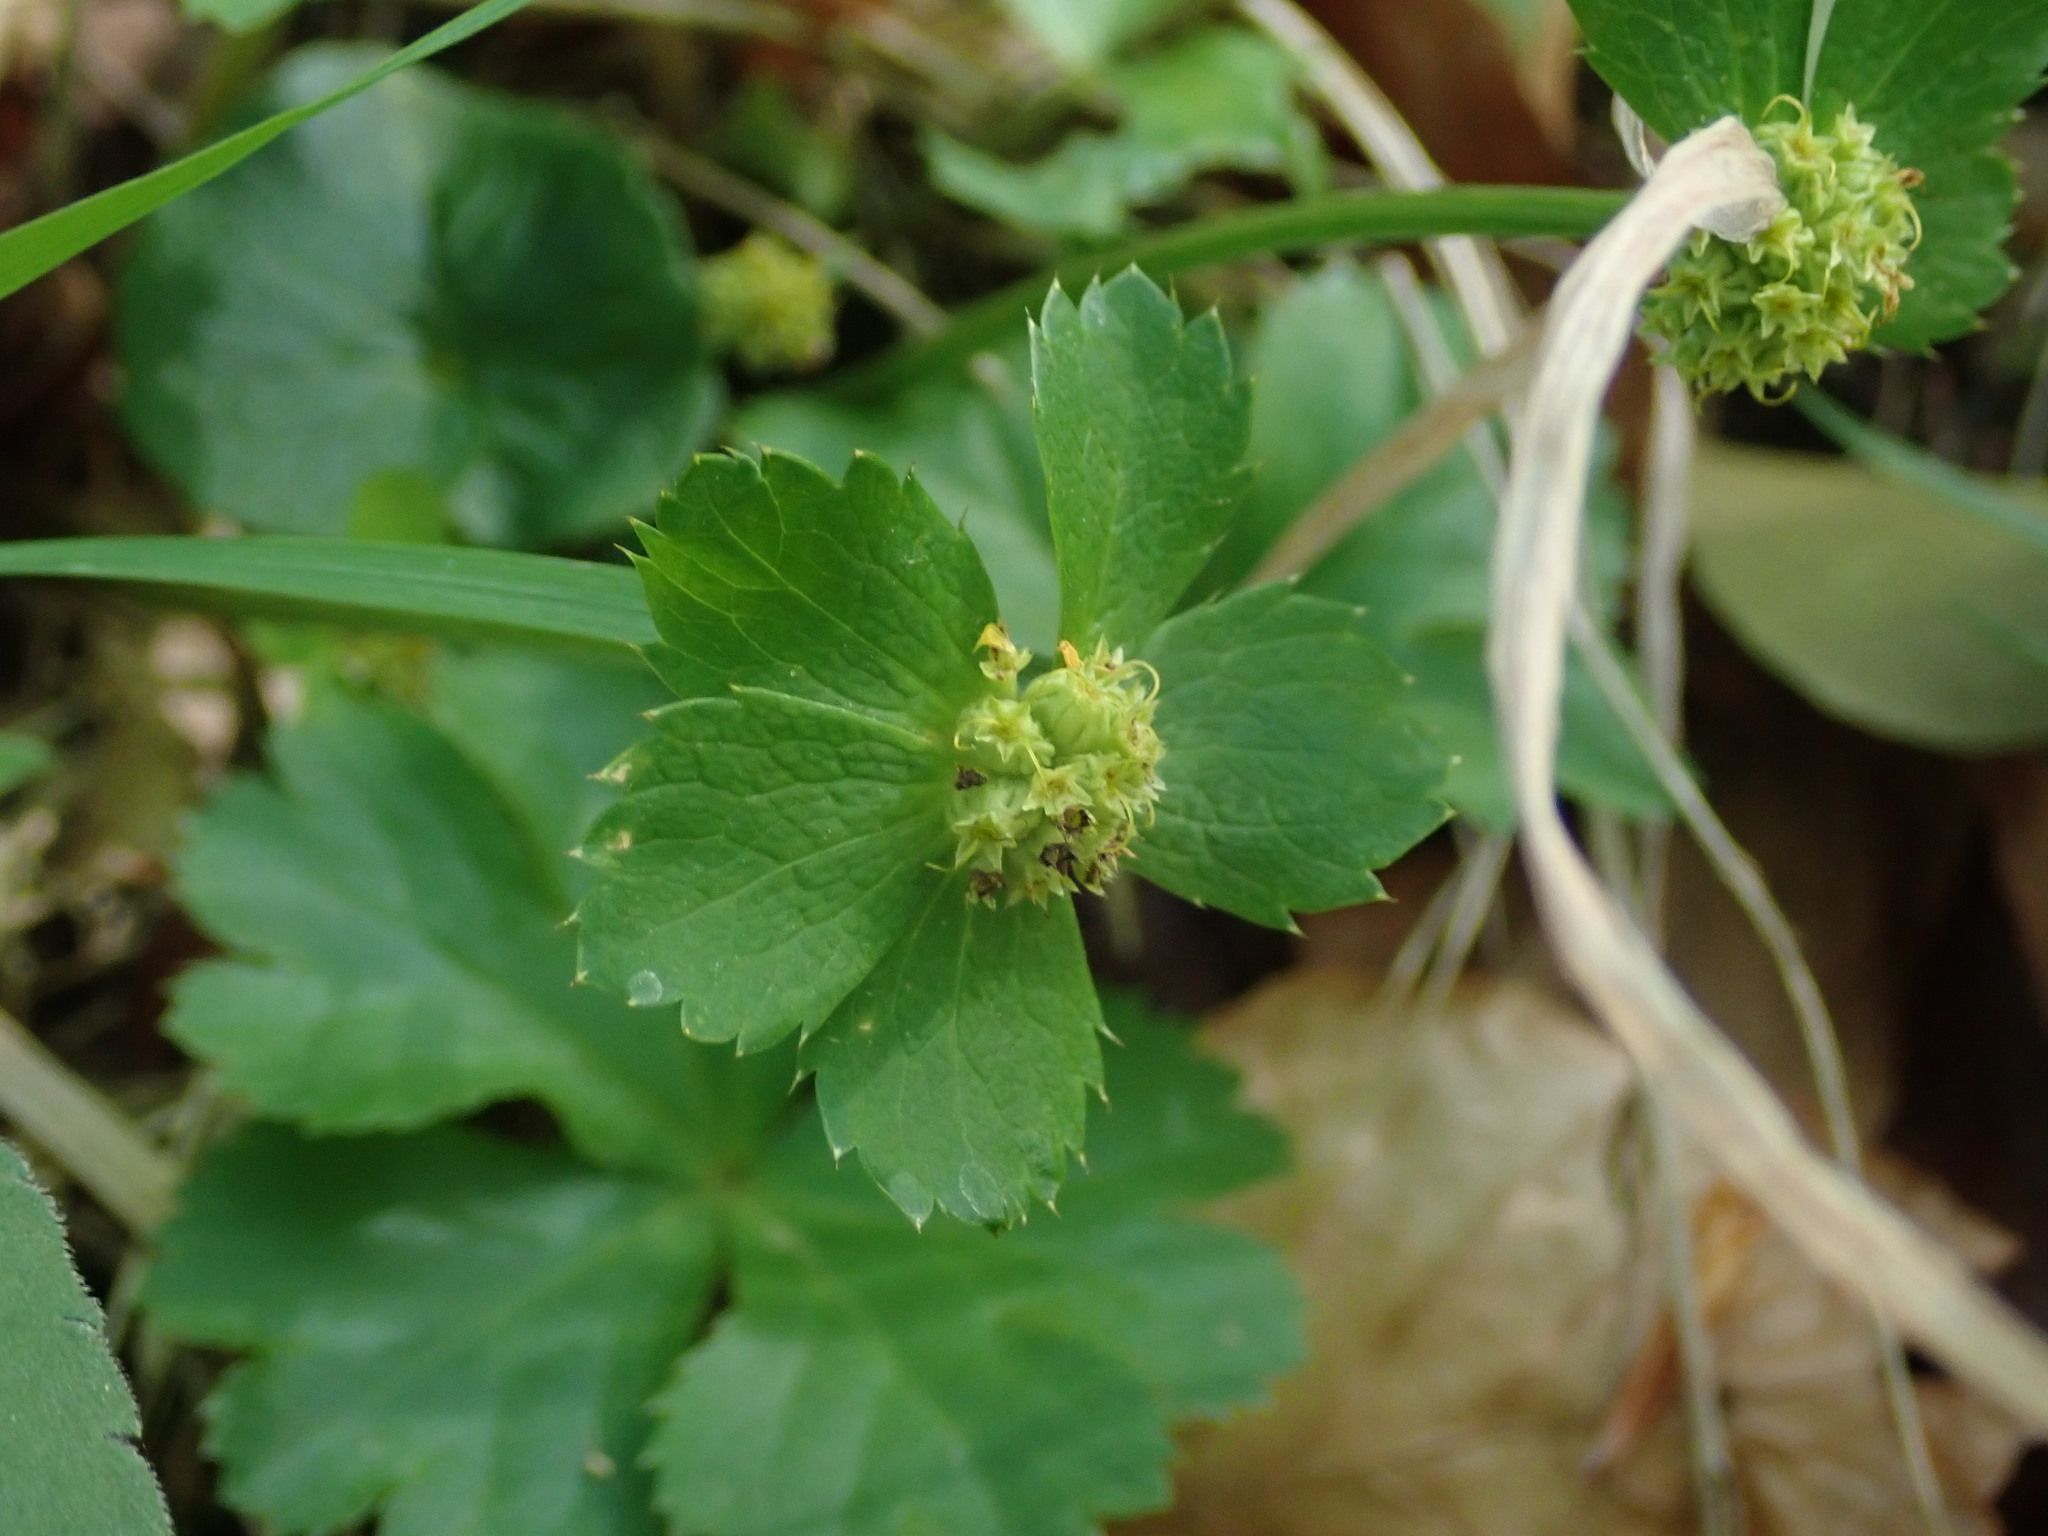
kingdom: Plantae
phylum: Tracheophyta
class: Magnoliopsida
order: Apiales
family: Apiaceae
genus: Sanicula
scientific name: Sanicula epipactis
